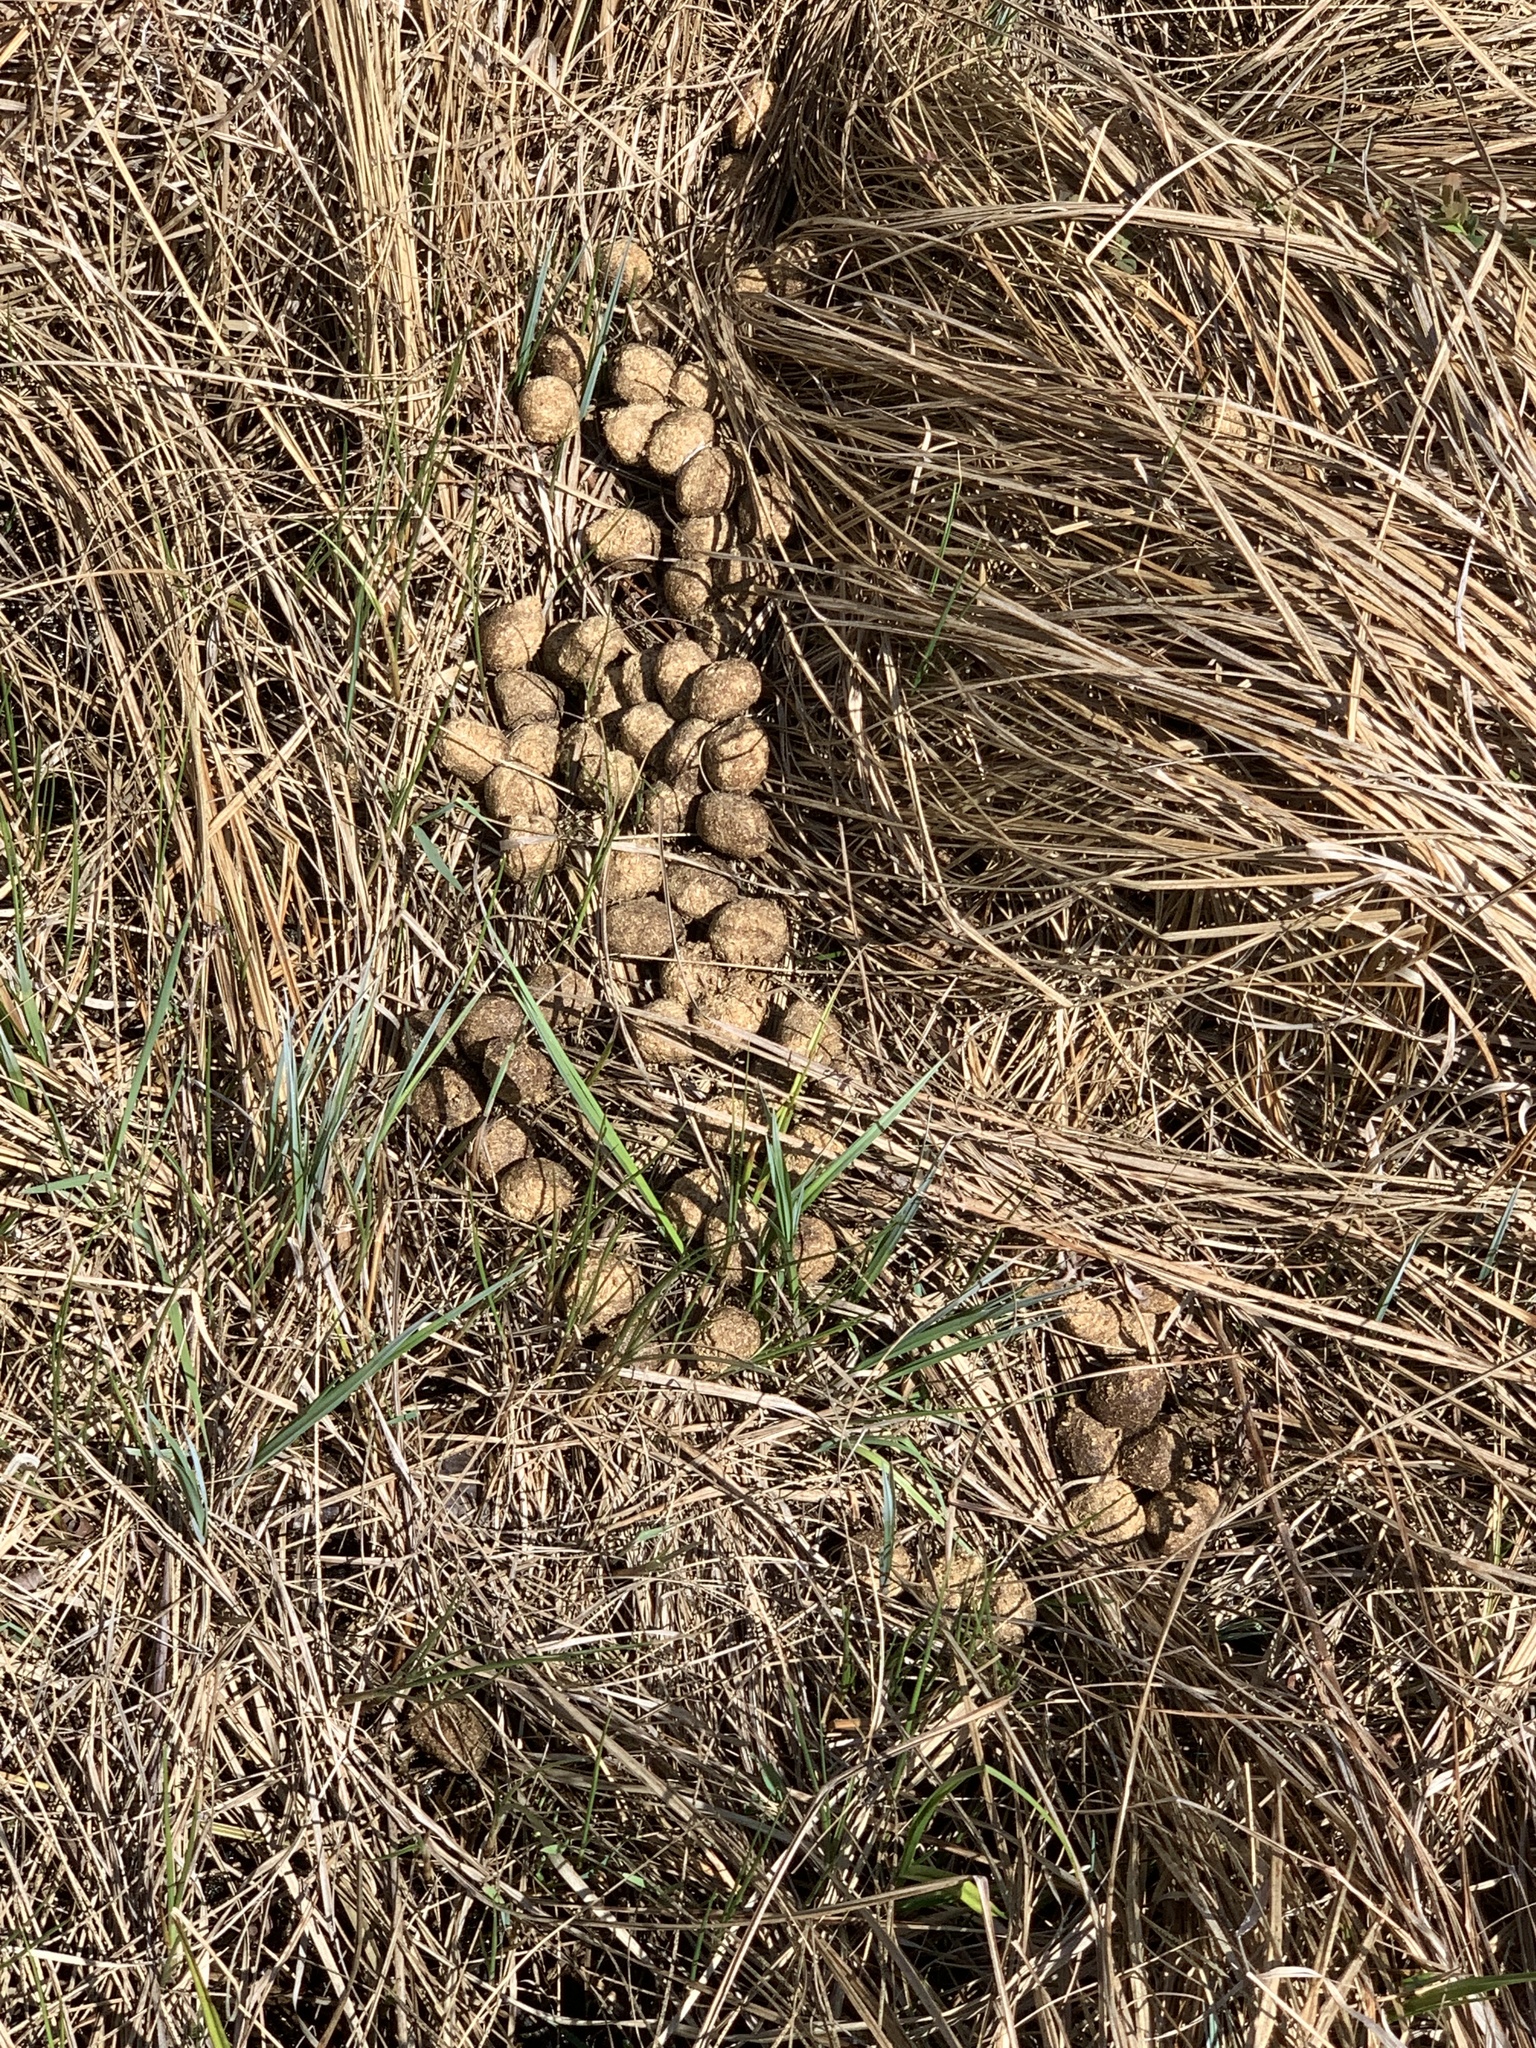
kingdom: Animalia
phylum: Chordata
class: Mammalia
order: Artiodactyla
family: Cervidae
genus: Alces
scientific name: Alces alces
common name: Moose
